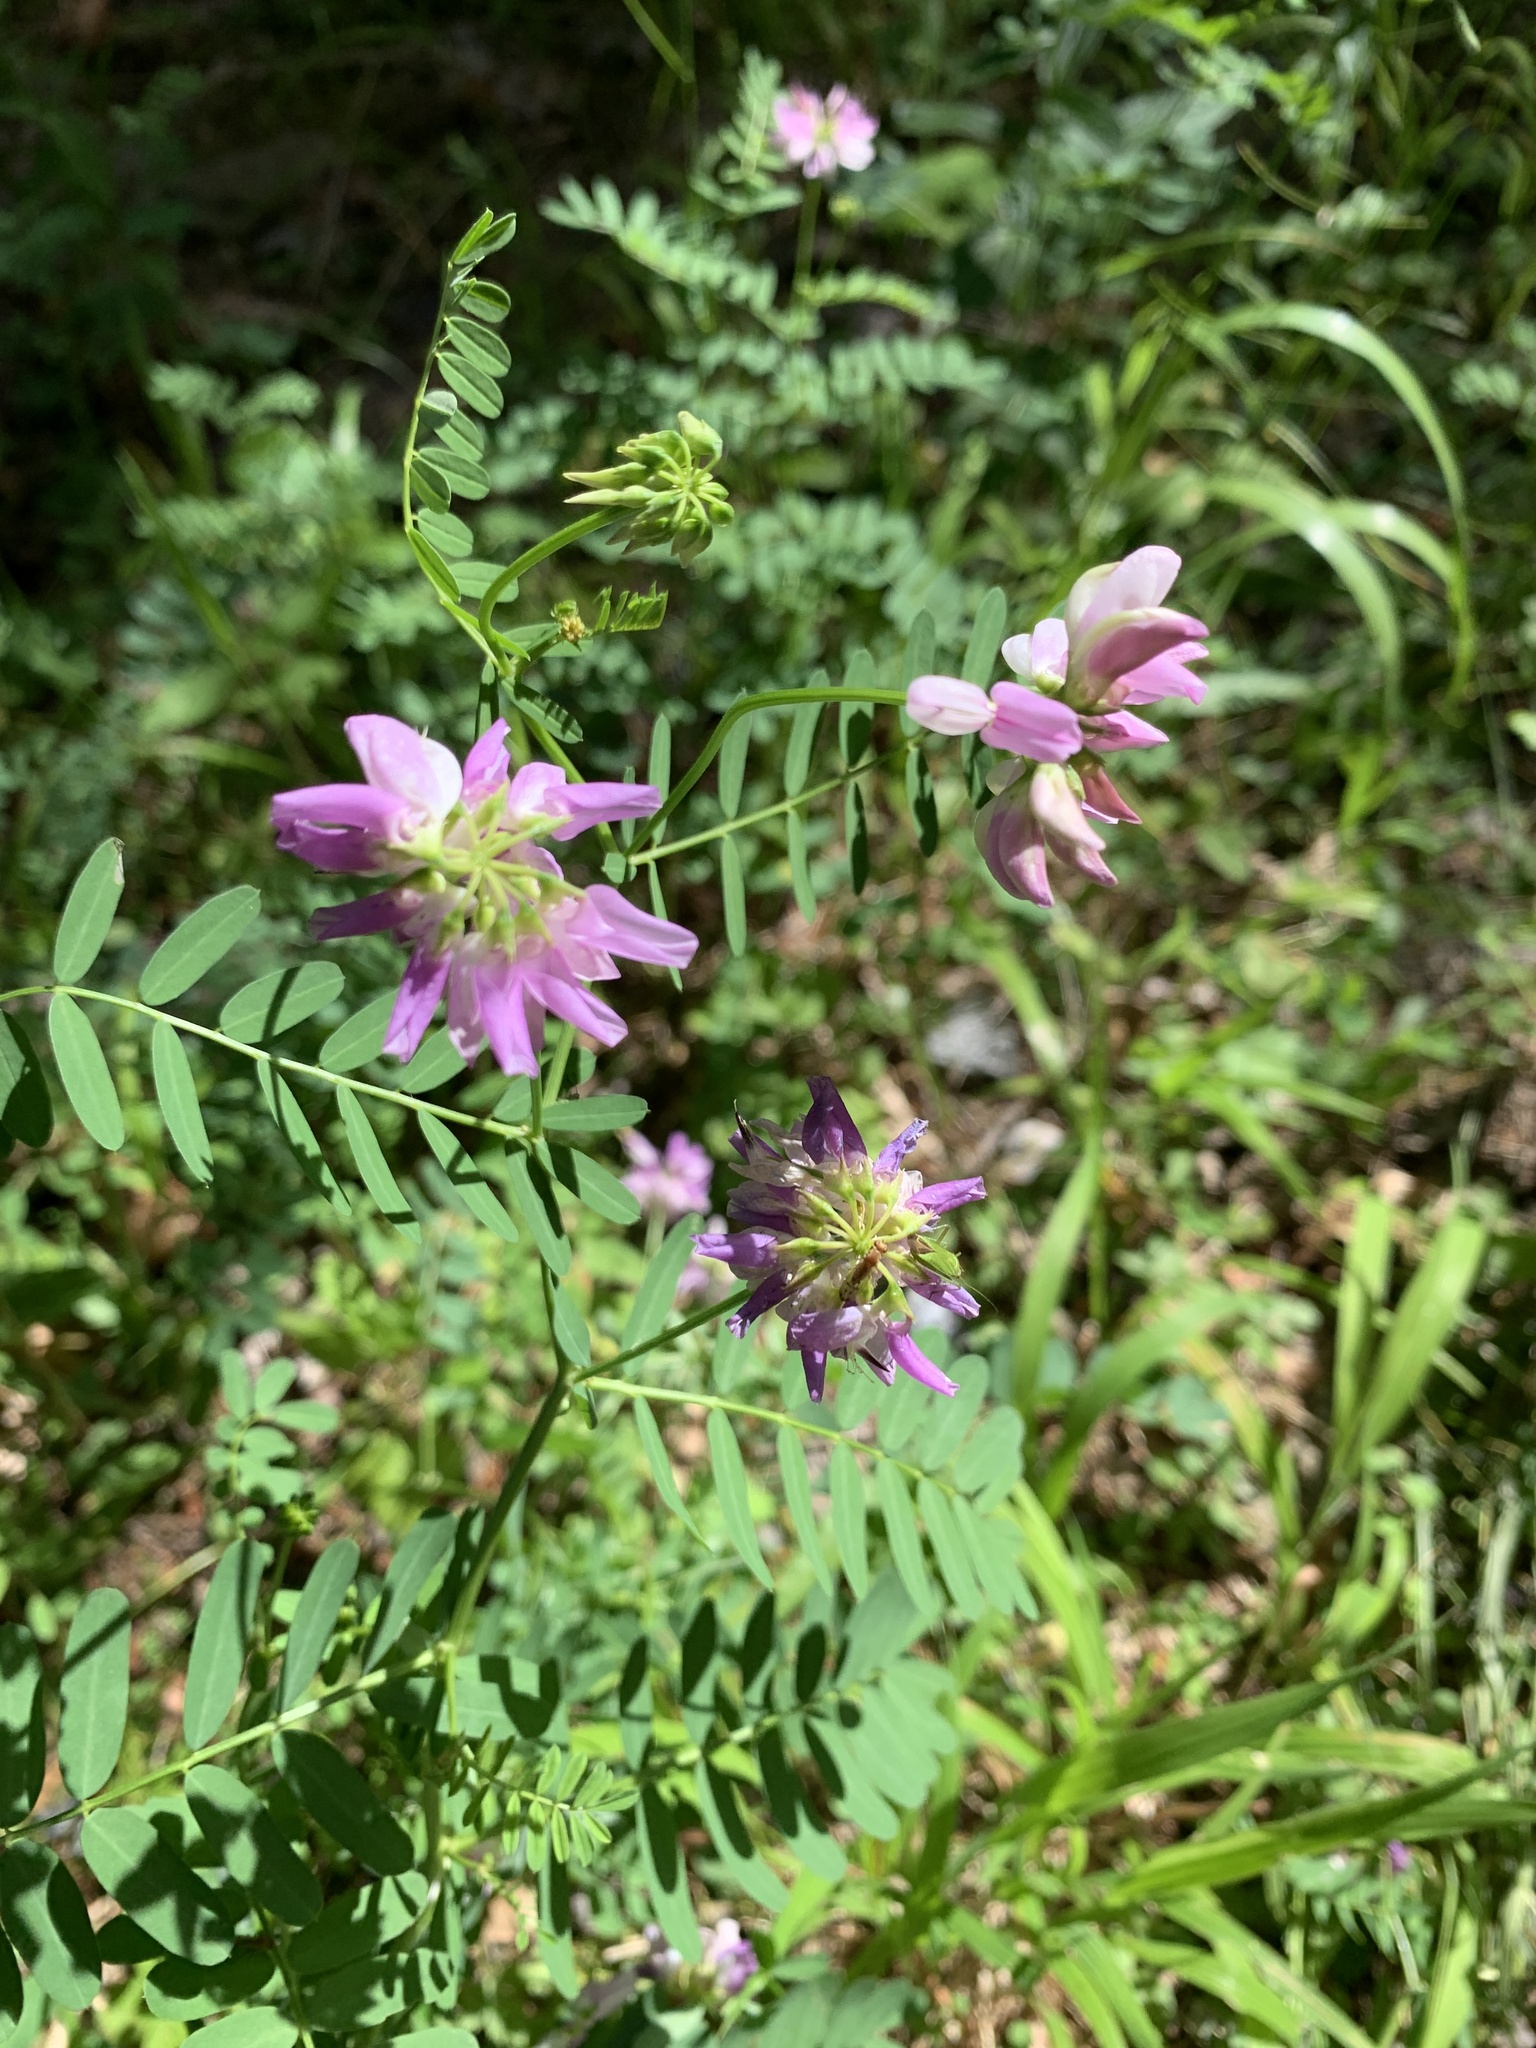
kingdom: Plantae
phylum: Tracheophyta
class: Magnoliopsida
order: Fabales
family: Fabaceae
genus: Coronilla
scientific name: Coronilla varia
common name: Crownvetch
